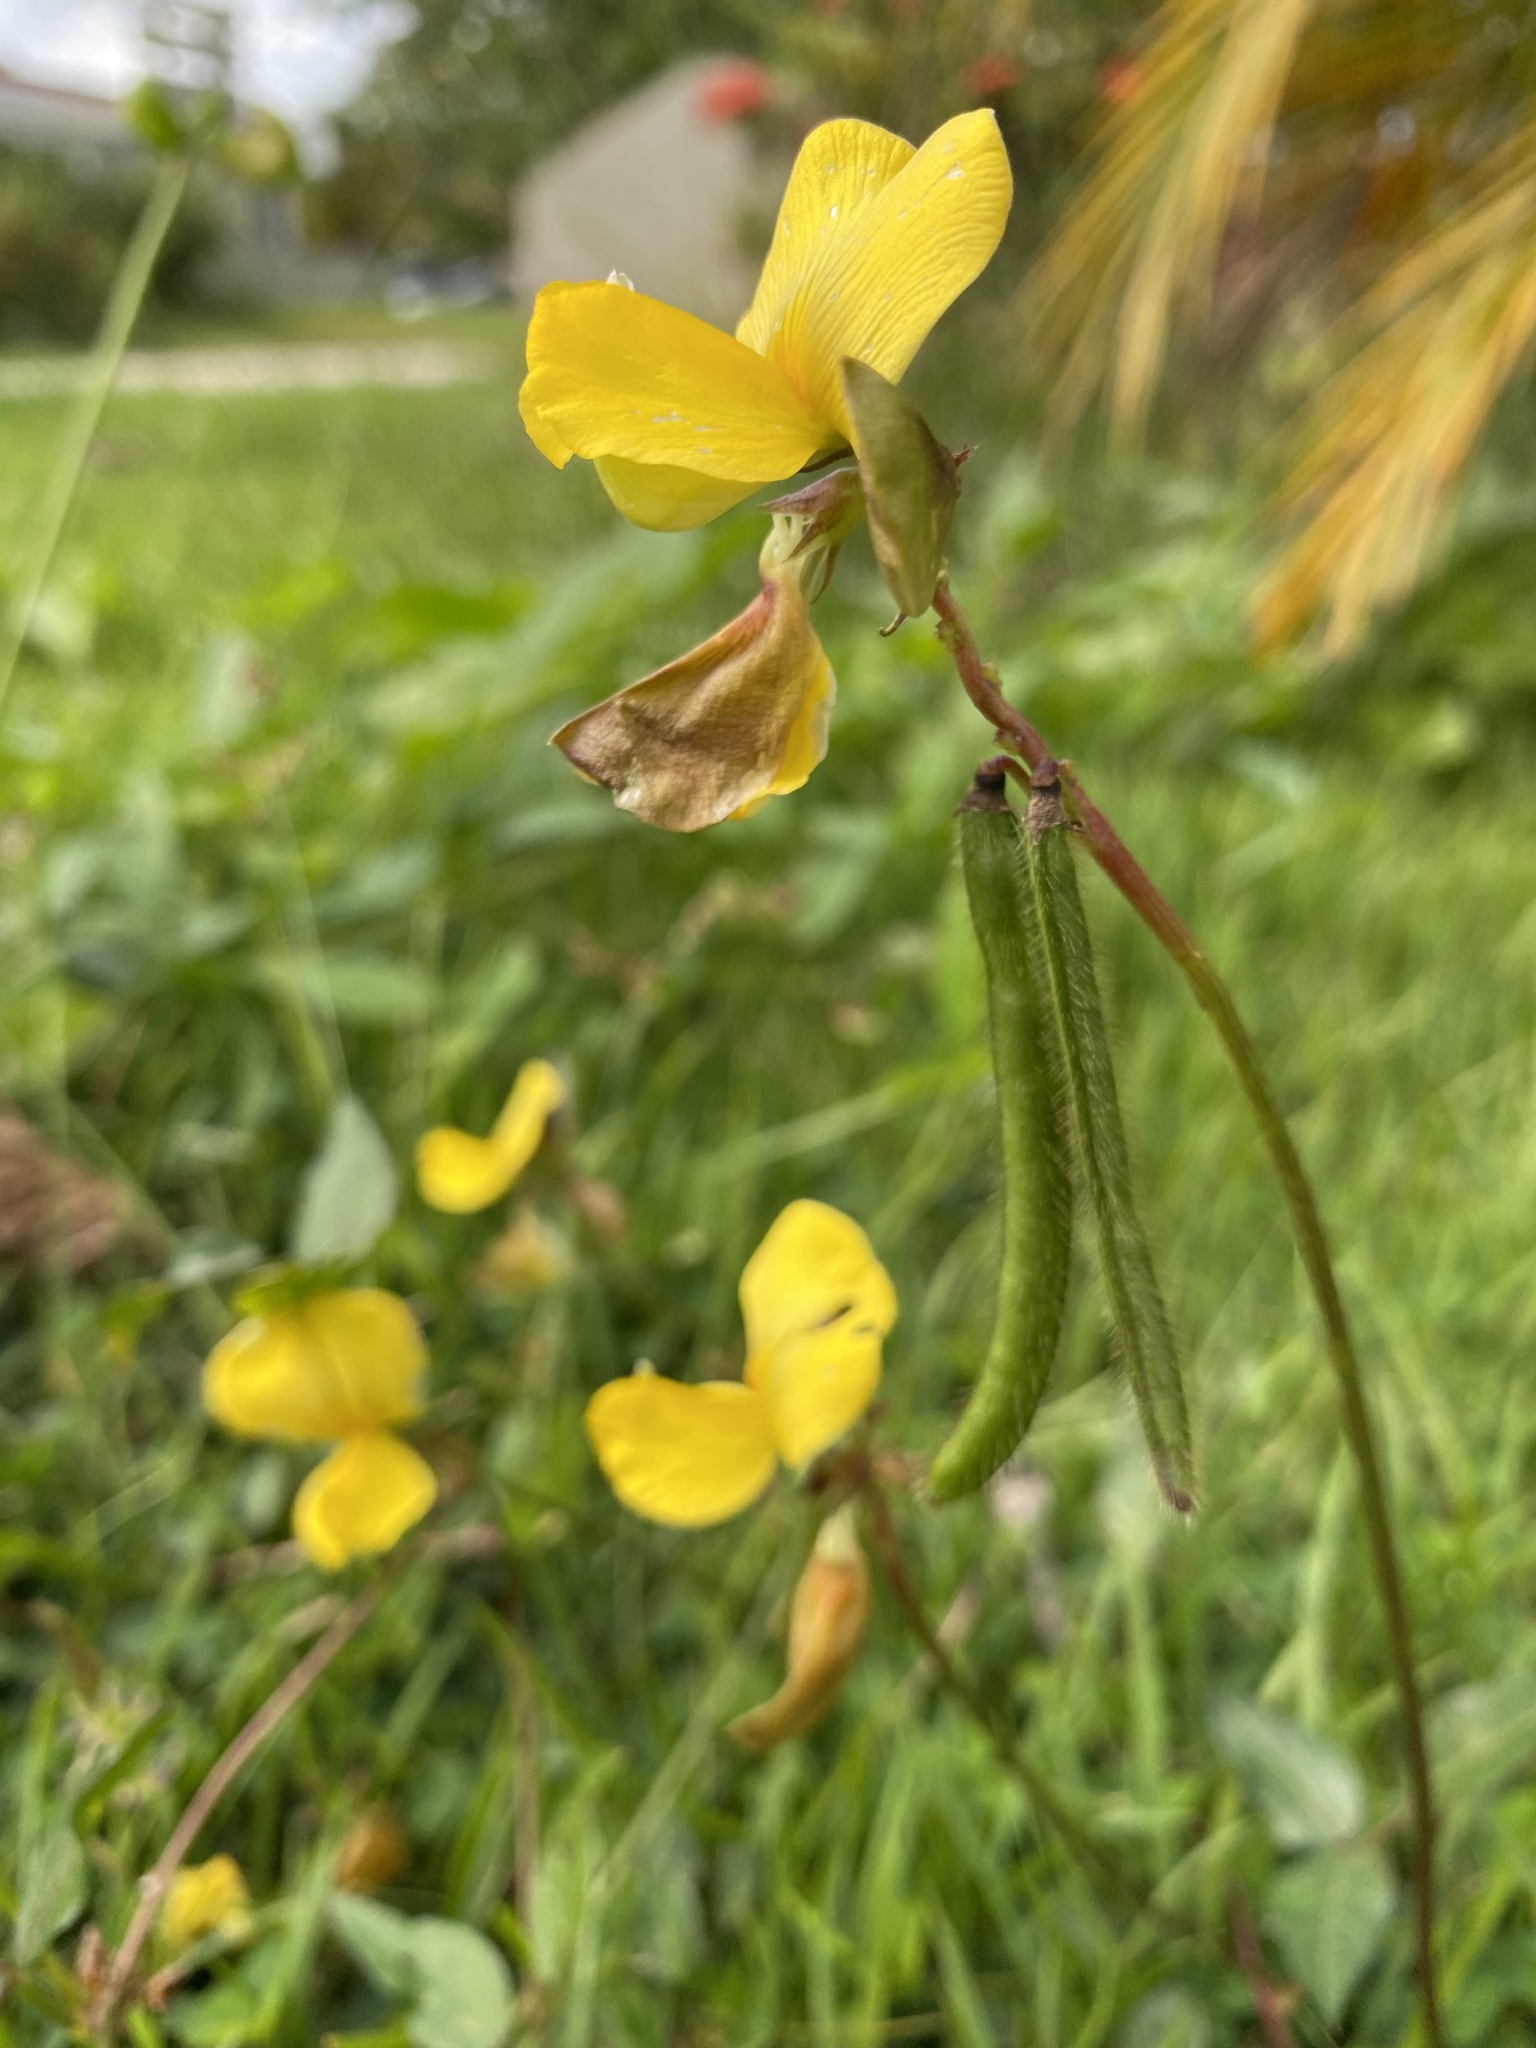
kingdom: Plantae
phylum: Tracheophyta
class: Magnoliopsida
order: Fabales
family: Fabaceae
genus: Vigna
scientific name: Vigna luteola
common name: Hairypod cowpea
